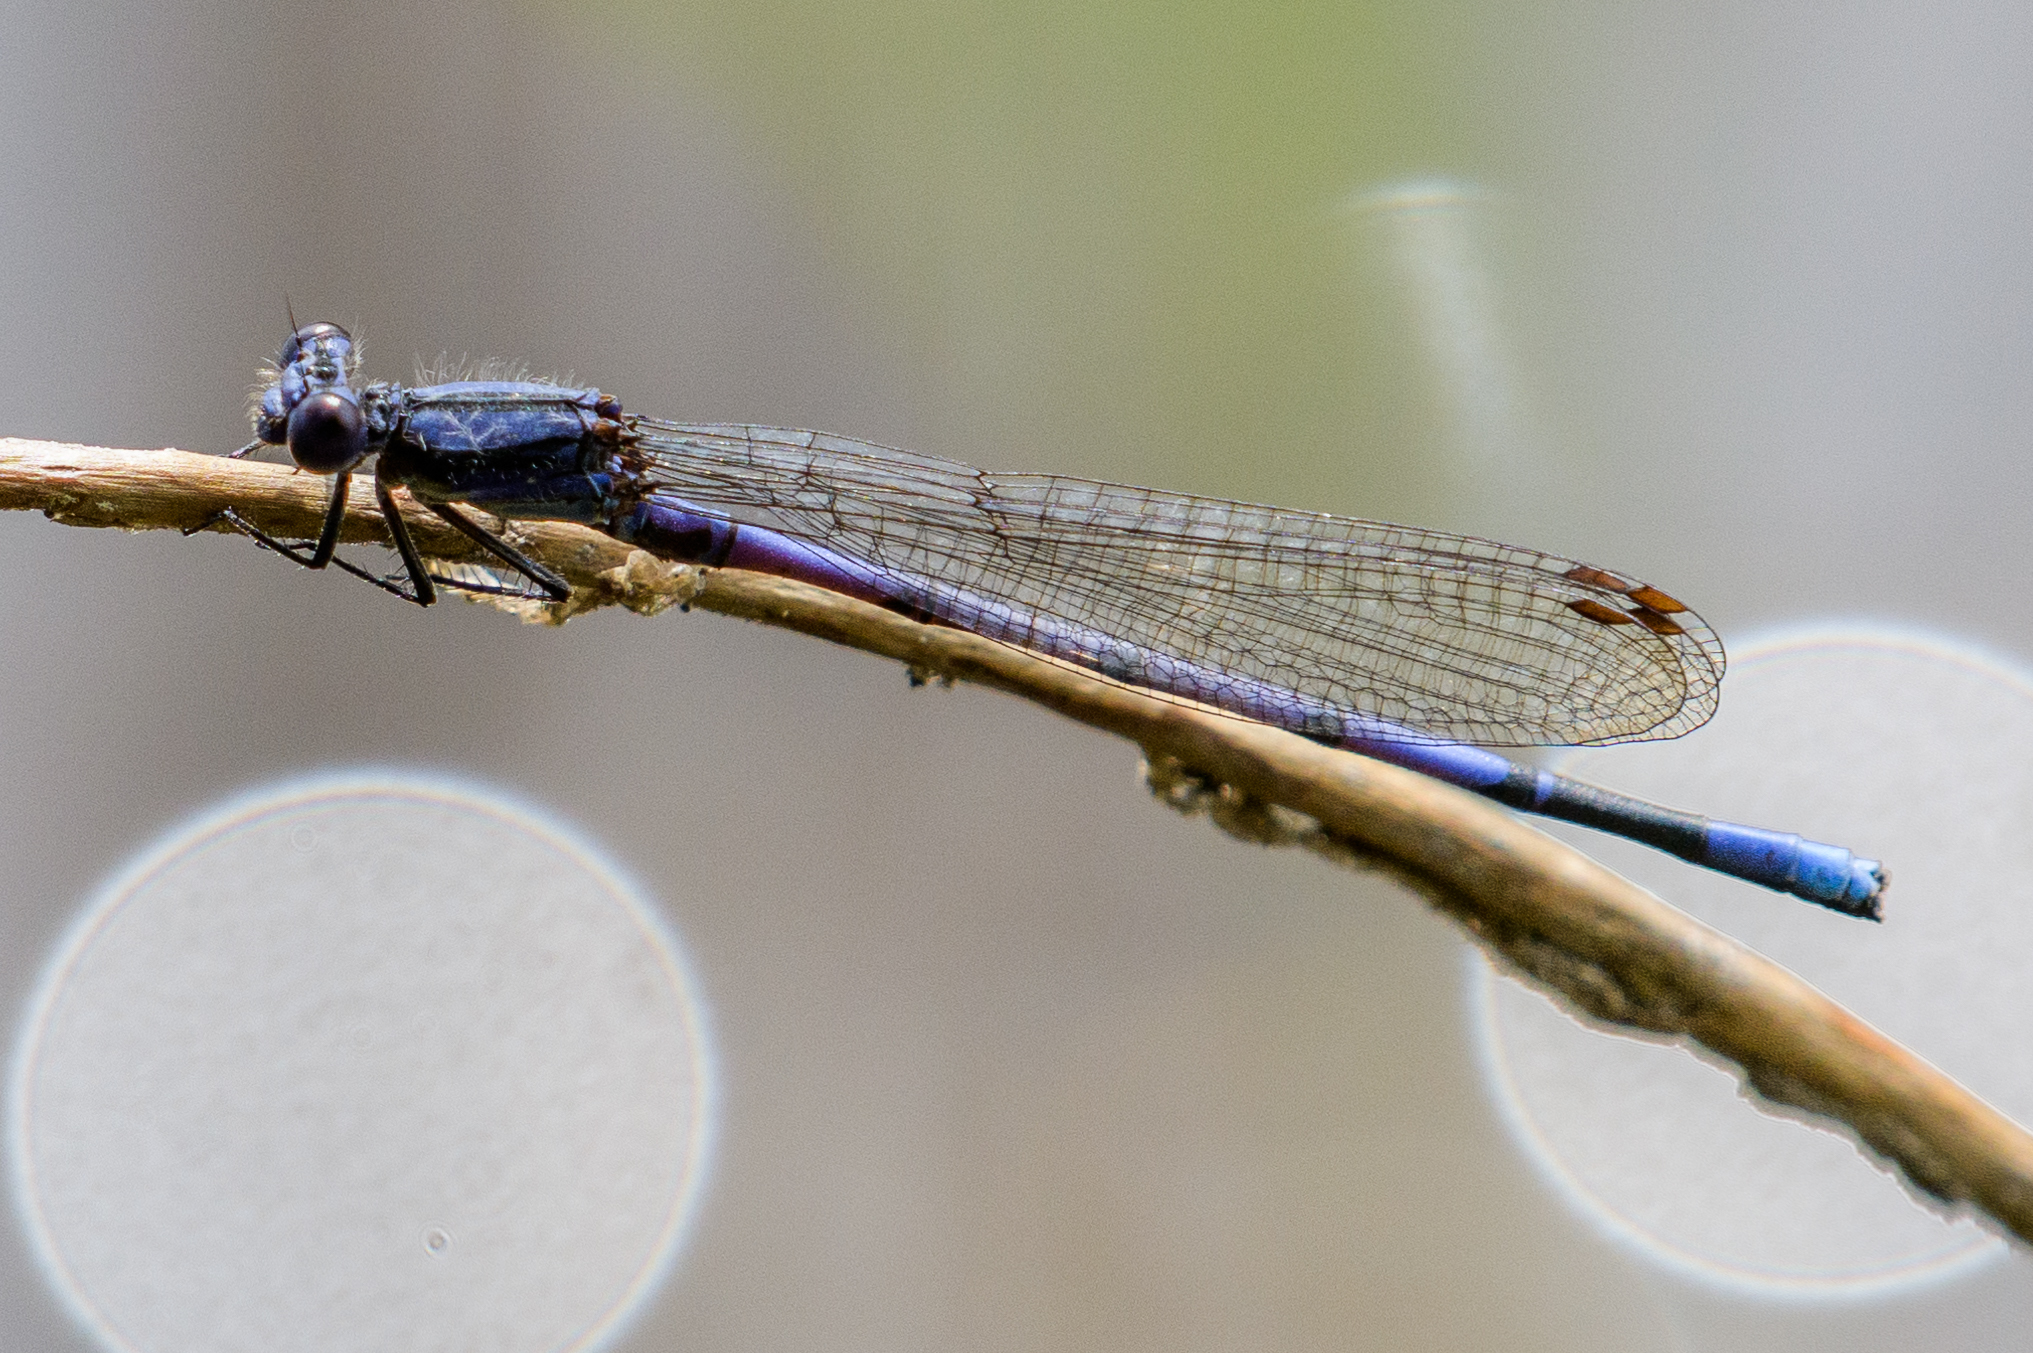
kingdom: Animalia
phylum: Arthropoda
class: Insecta
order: Odonata
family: Coenagrionidae
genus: Argia
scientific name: Argia fumipennis
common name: Variable dancer
